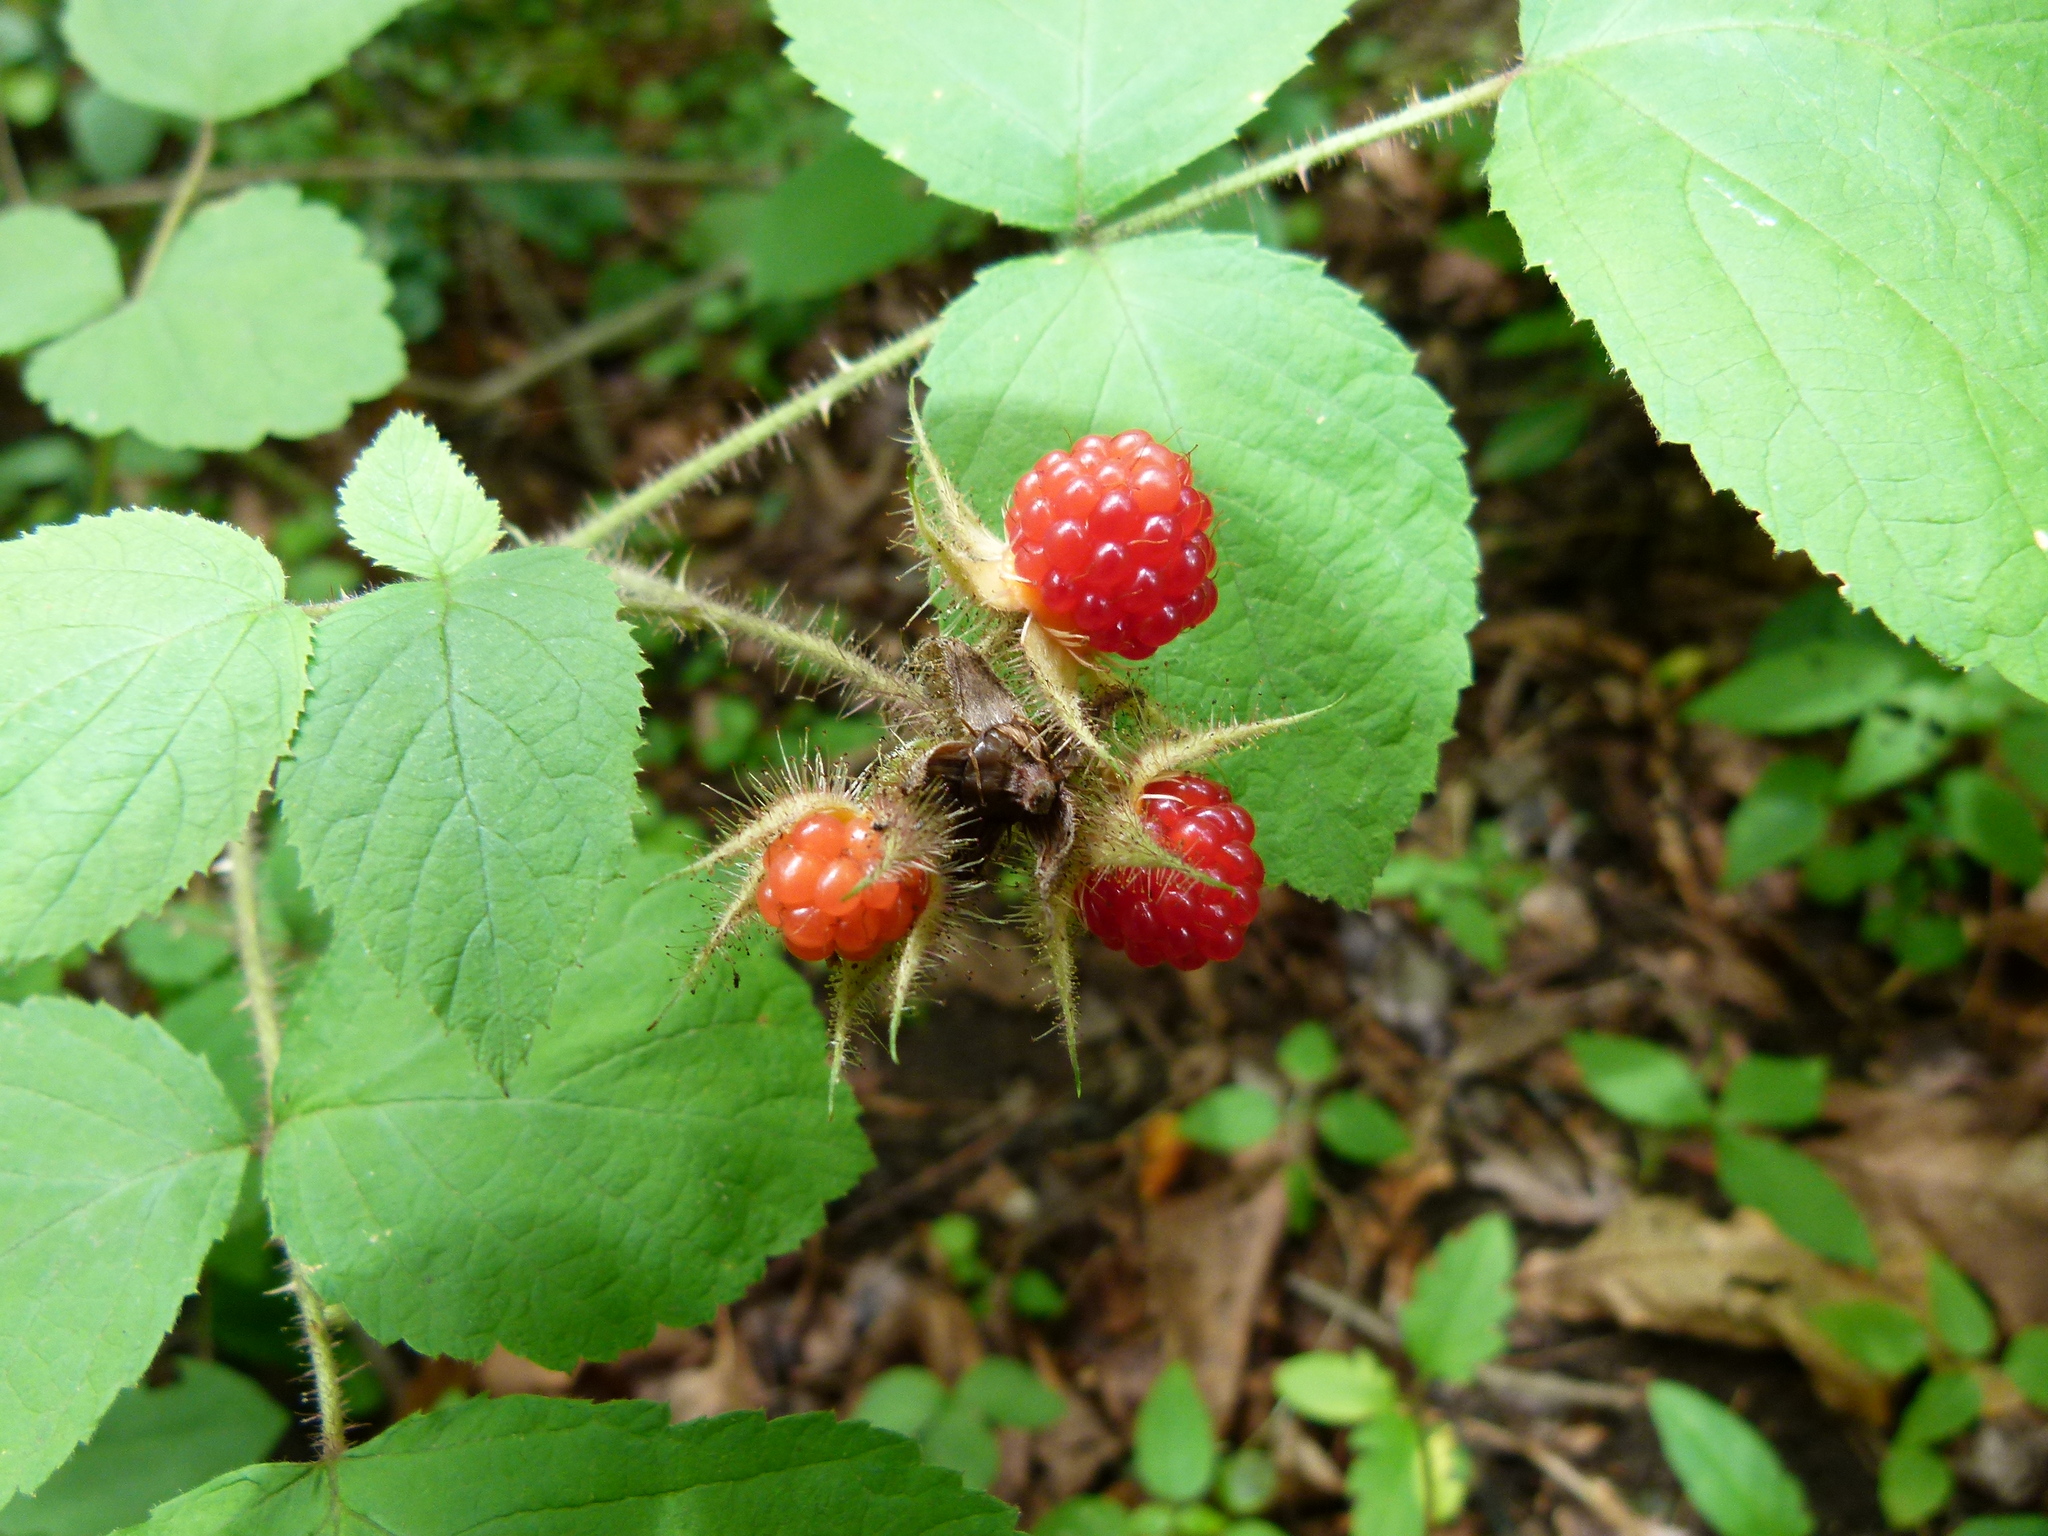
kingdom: Plantae
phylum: Tracheophyta
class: Magnoliopsida
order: Rosales
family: Rosaceae
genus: Rubus
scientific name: Rubus phoenicolasius
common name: Japanese wineberry
